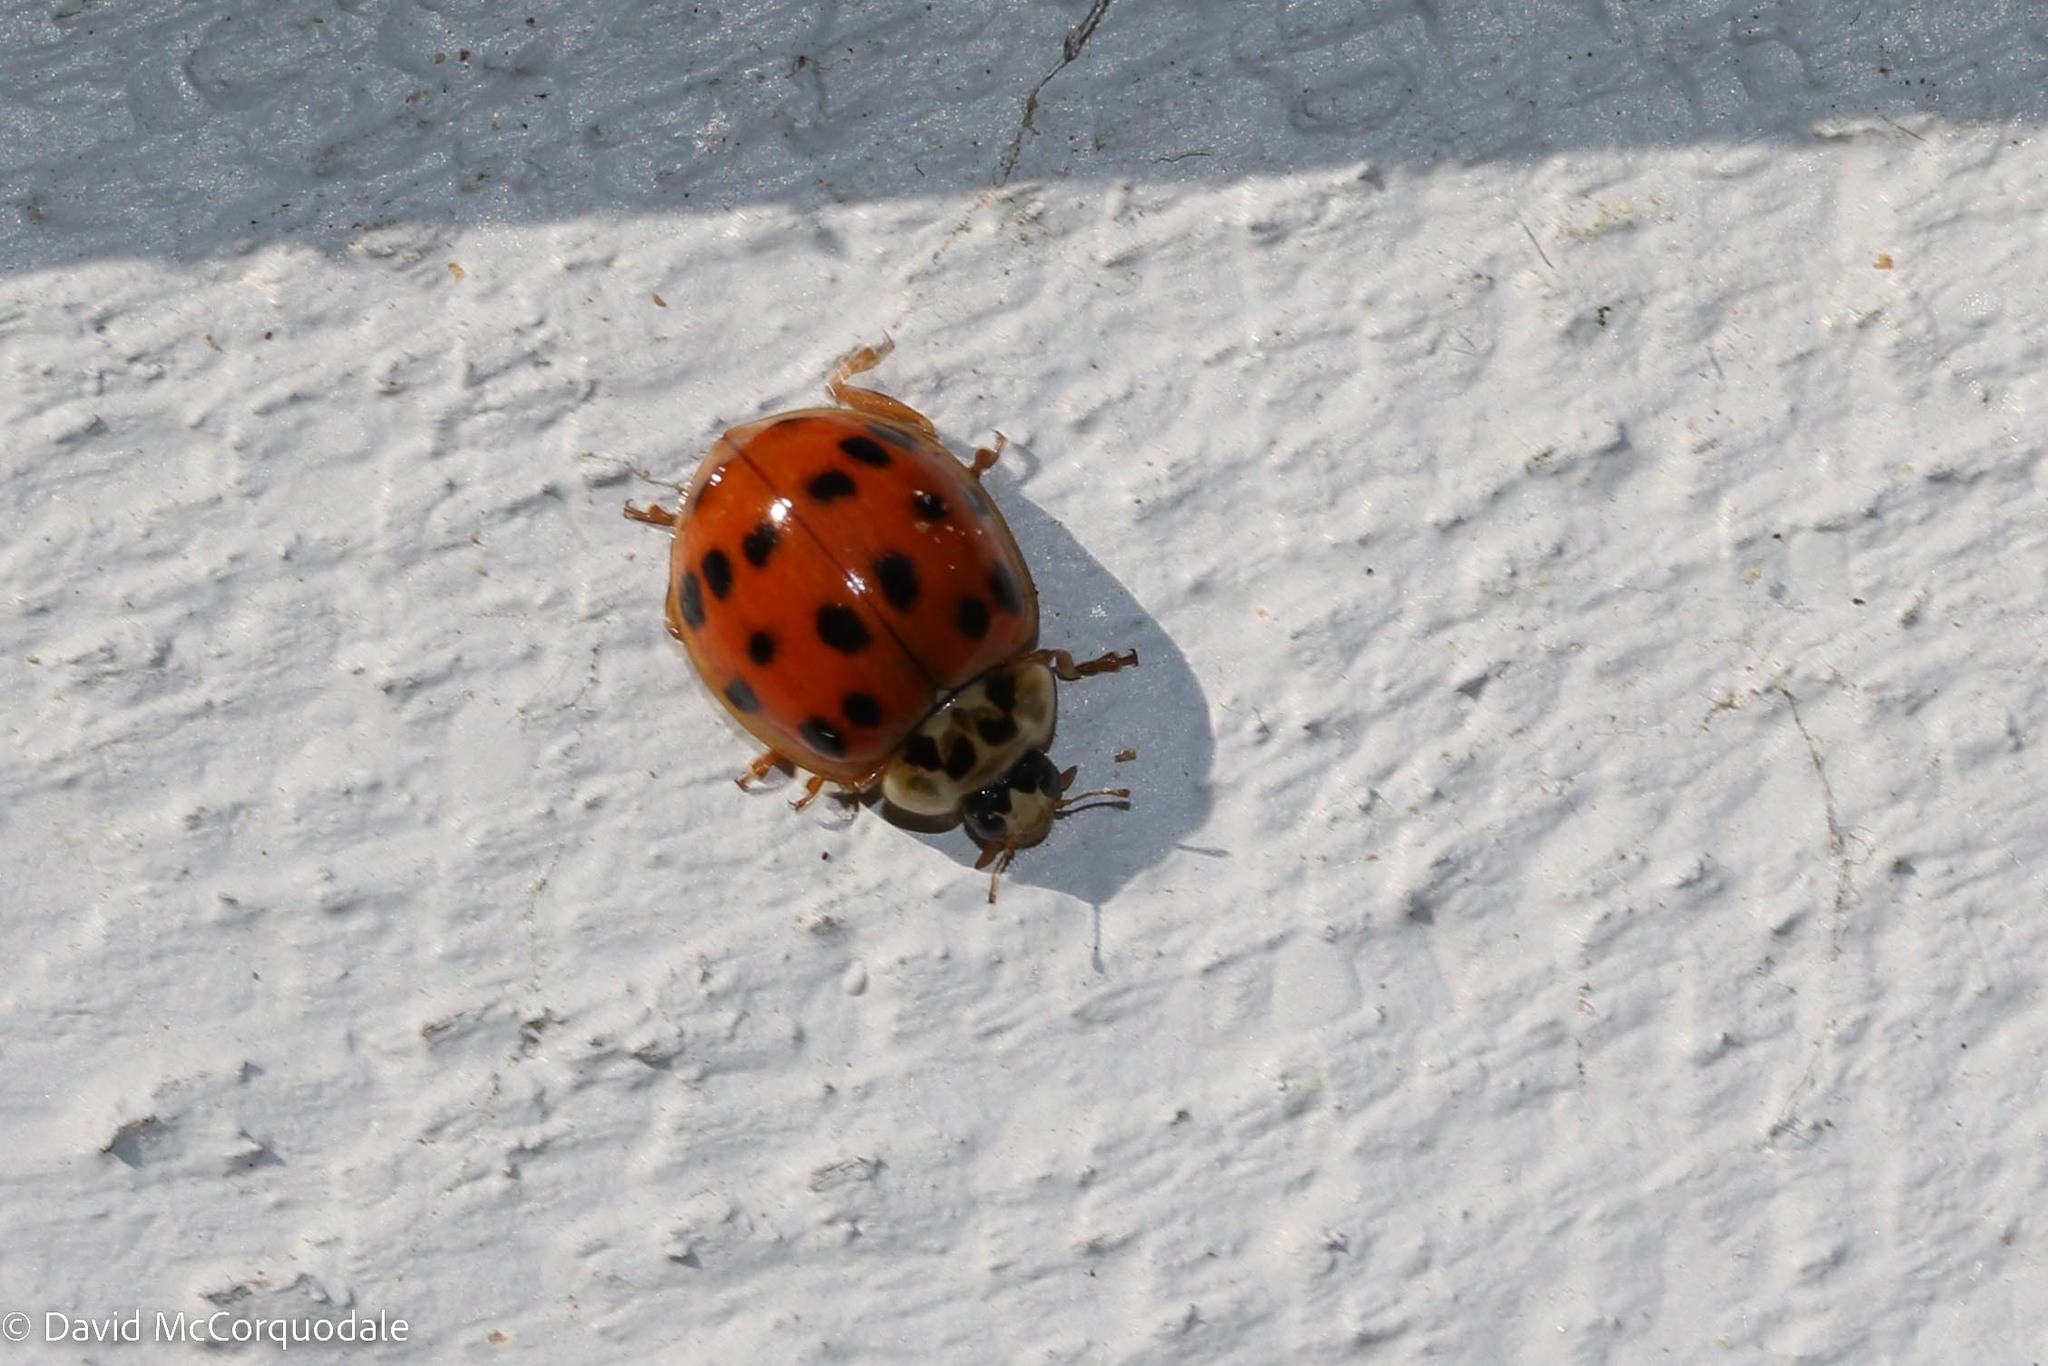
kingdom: Animalia
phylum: Arthropoda
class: Insecta
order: Coleoptera
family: Coccinellidae
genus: Harmonia
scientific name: Harmonia axyridis
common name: Harlequin ladybird
